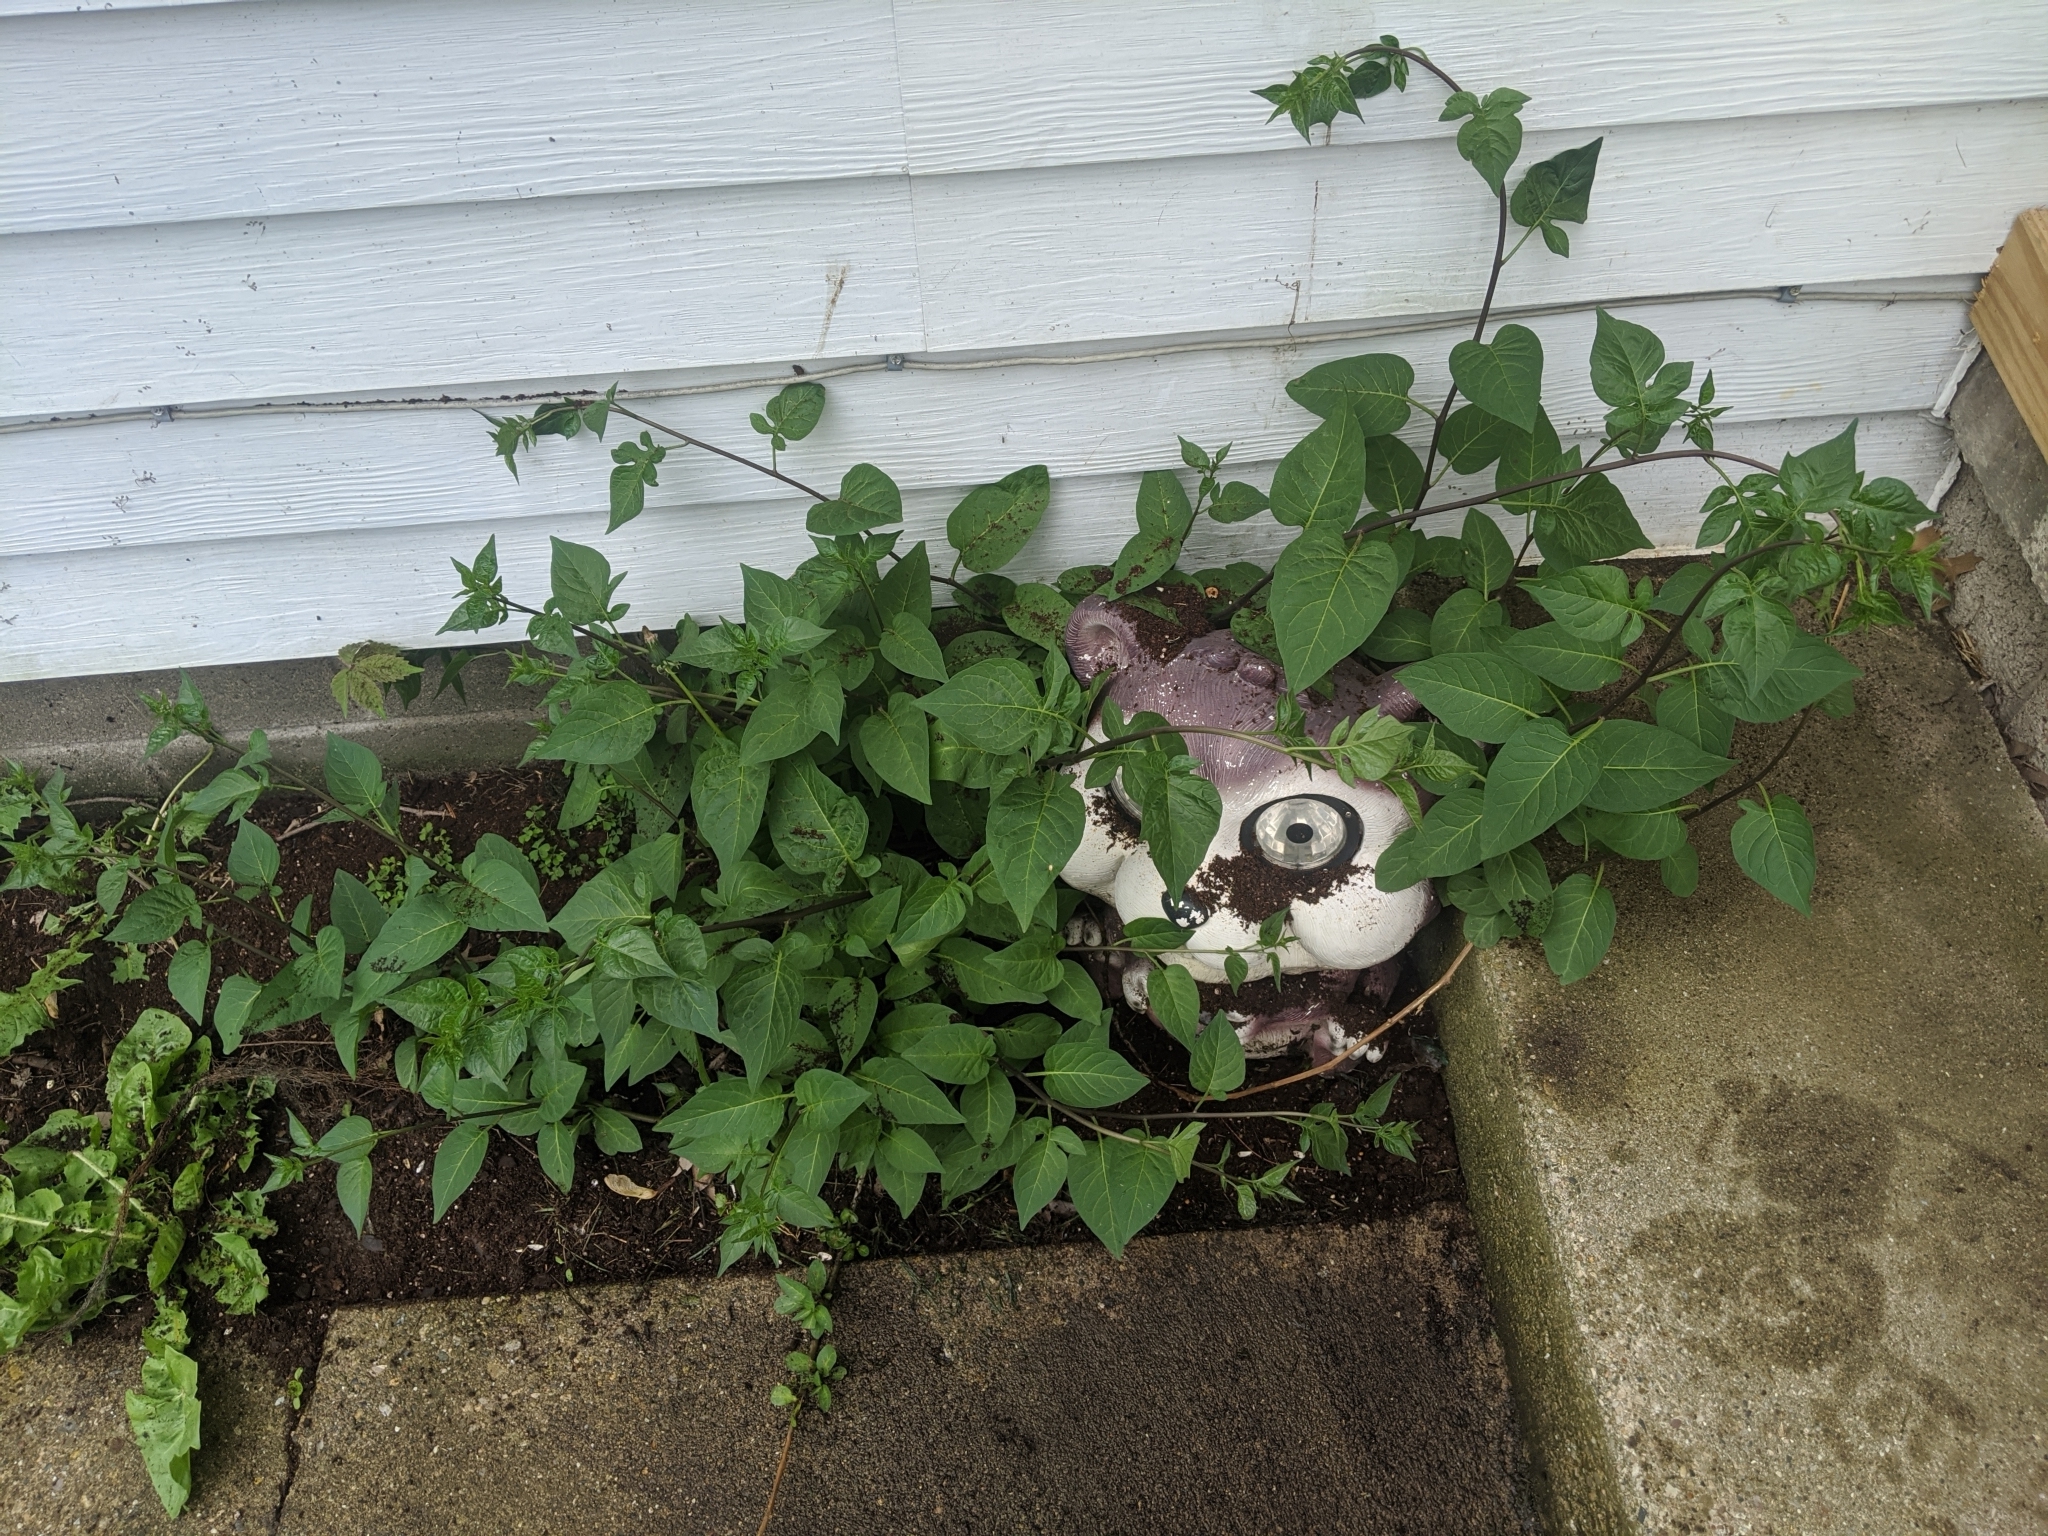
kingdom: Plantae
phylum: Tracheophyta
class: Magnoliopsida
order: Solanales
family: Solanaceae
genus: Solanum
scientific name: Solanum dulcamara
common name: Climbing nightshade
